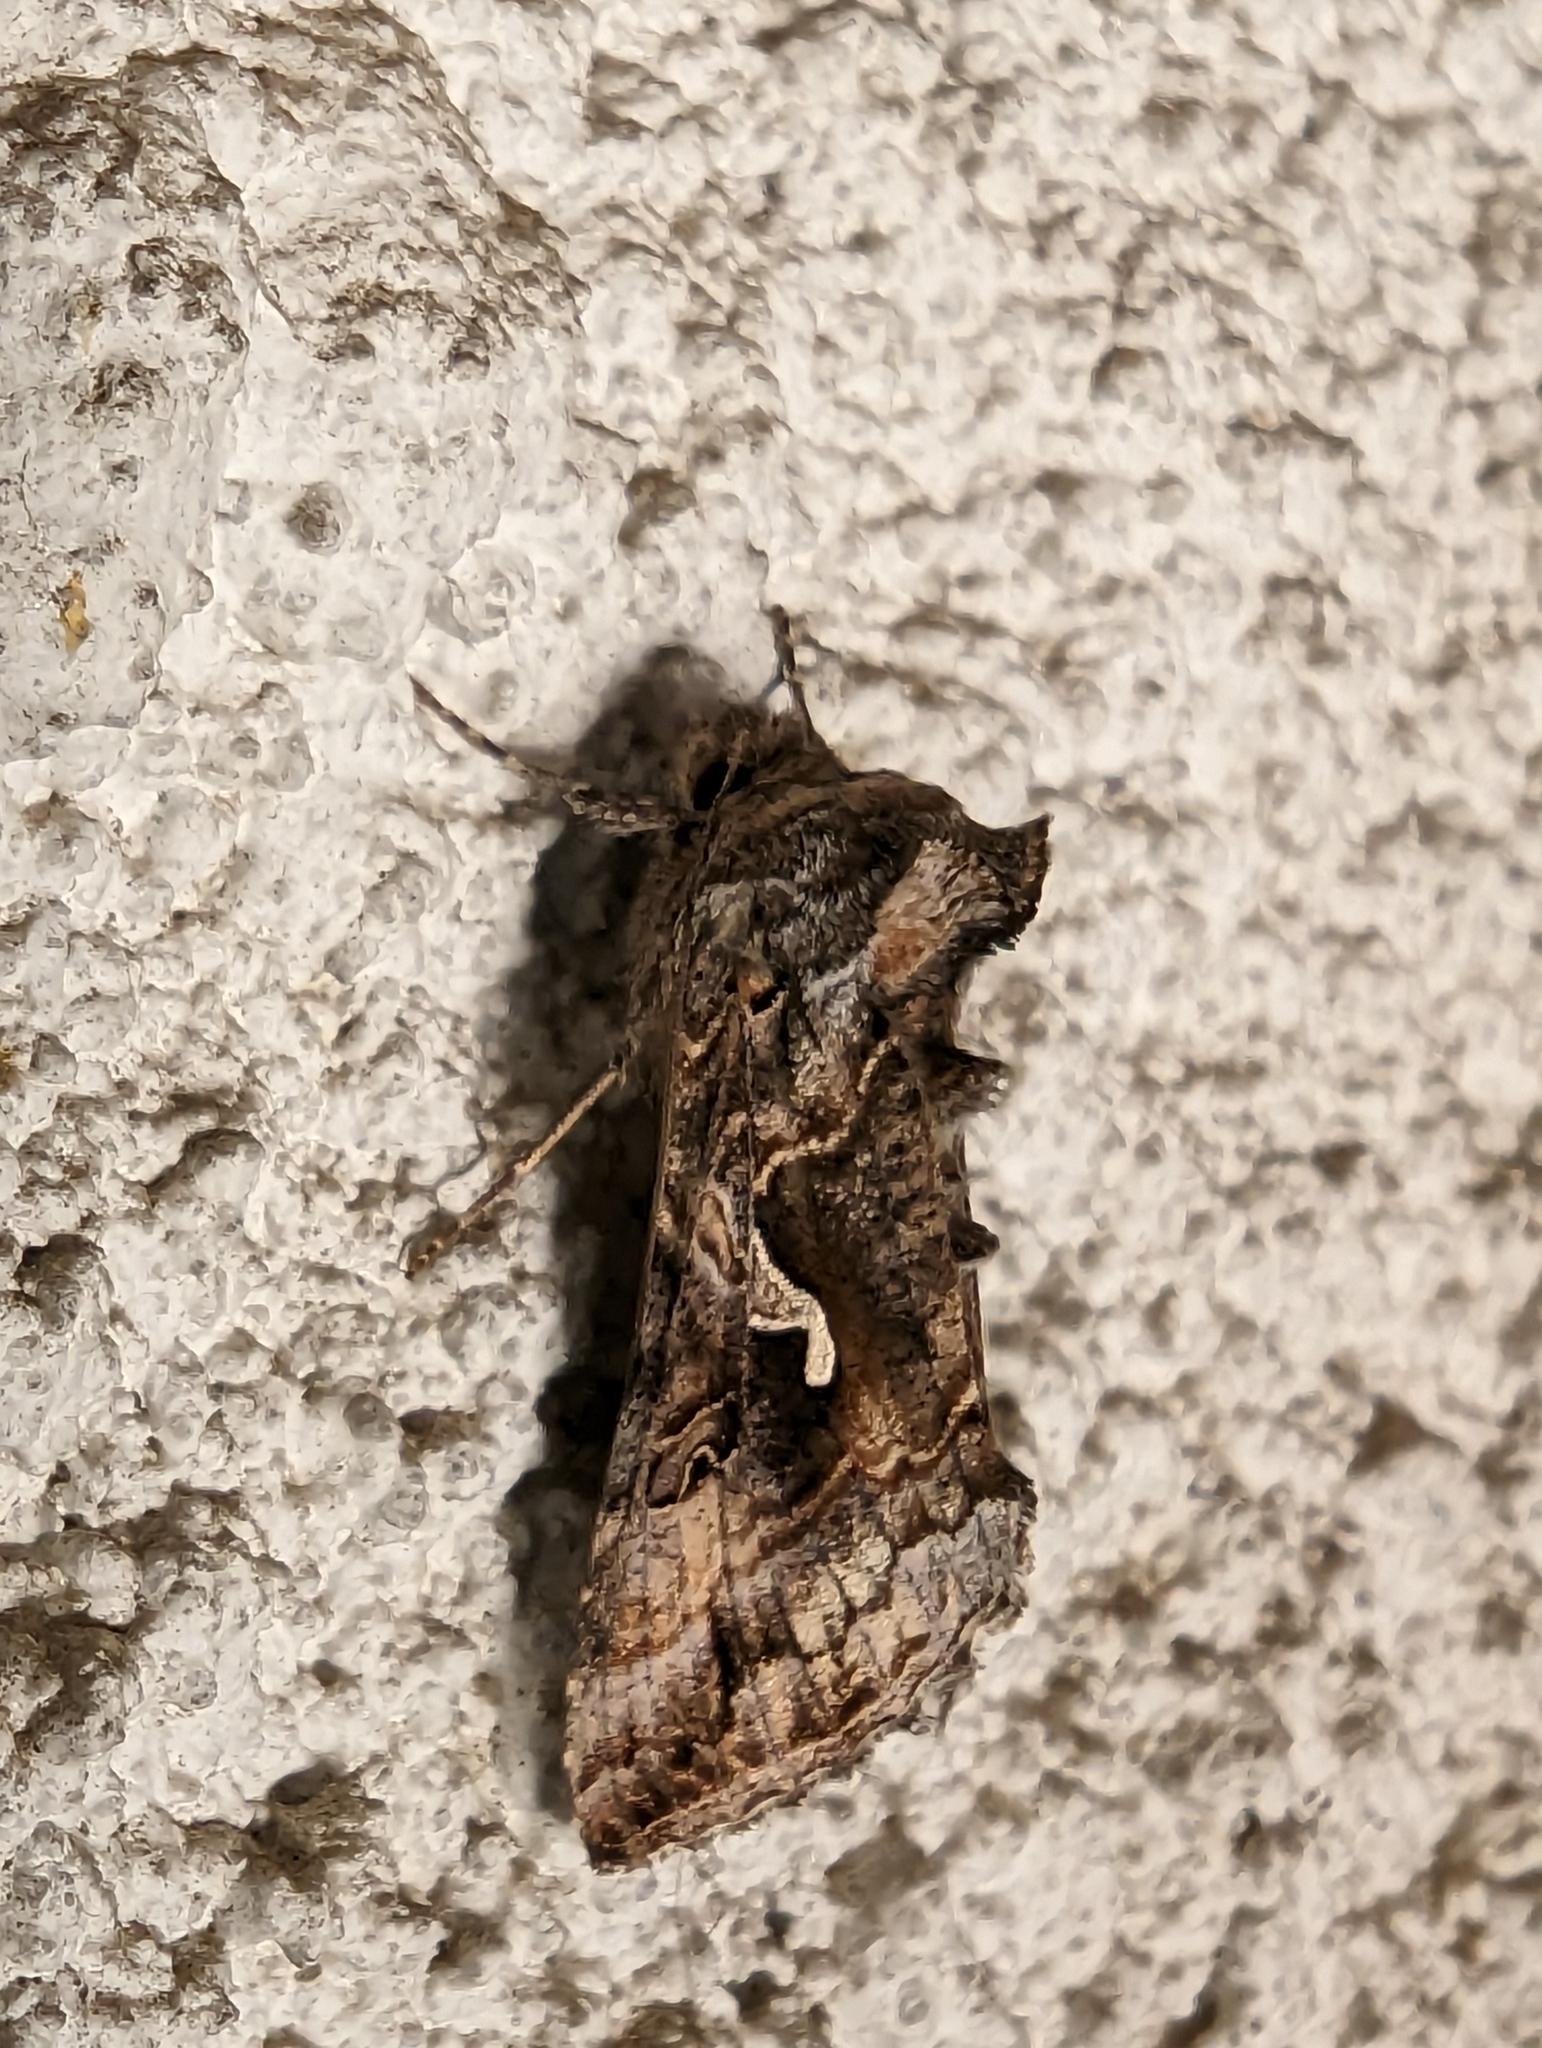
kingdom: Animalia
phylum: Arthropoda
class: Insecta
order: Lepidoptera
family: Noctuidae
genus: Autographa
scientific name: Autographa californica
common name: Alfalfa looper
